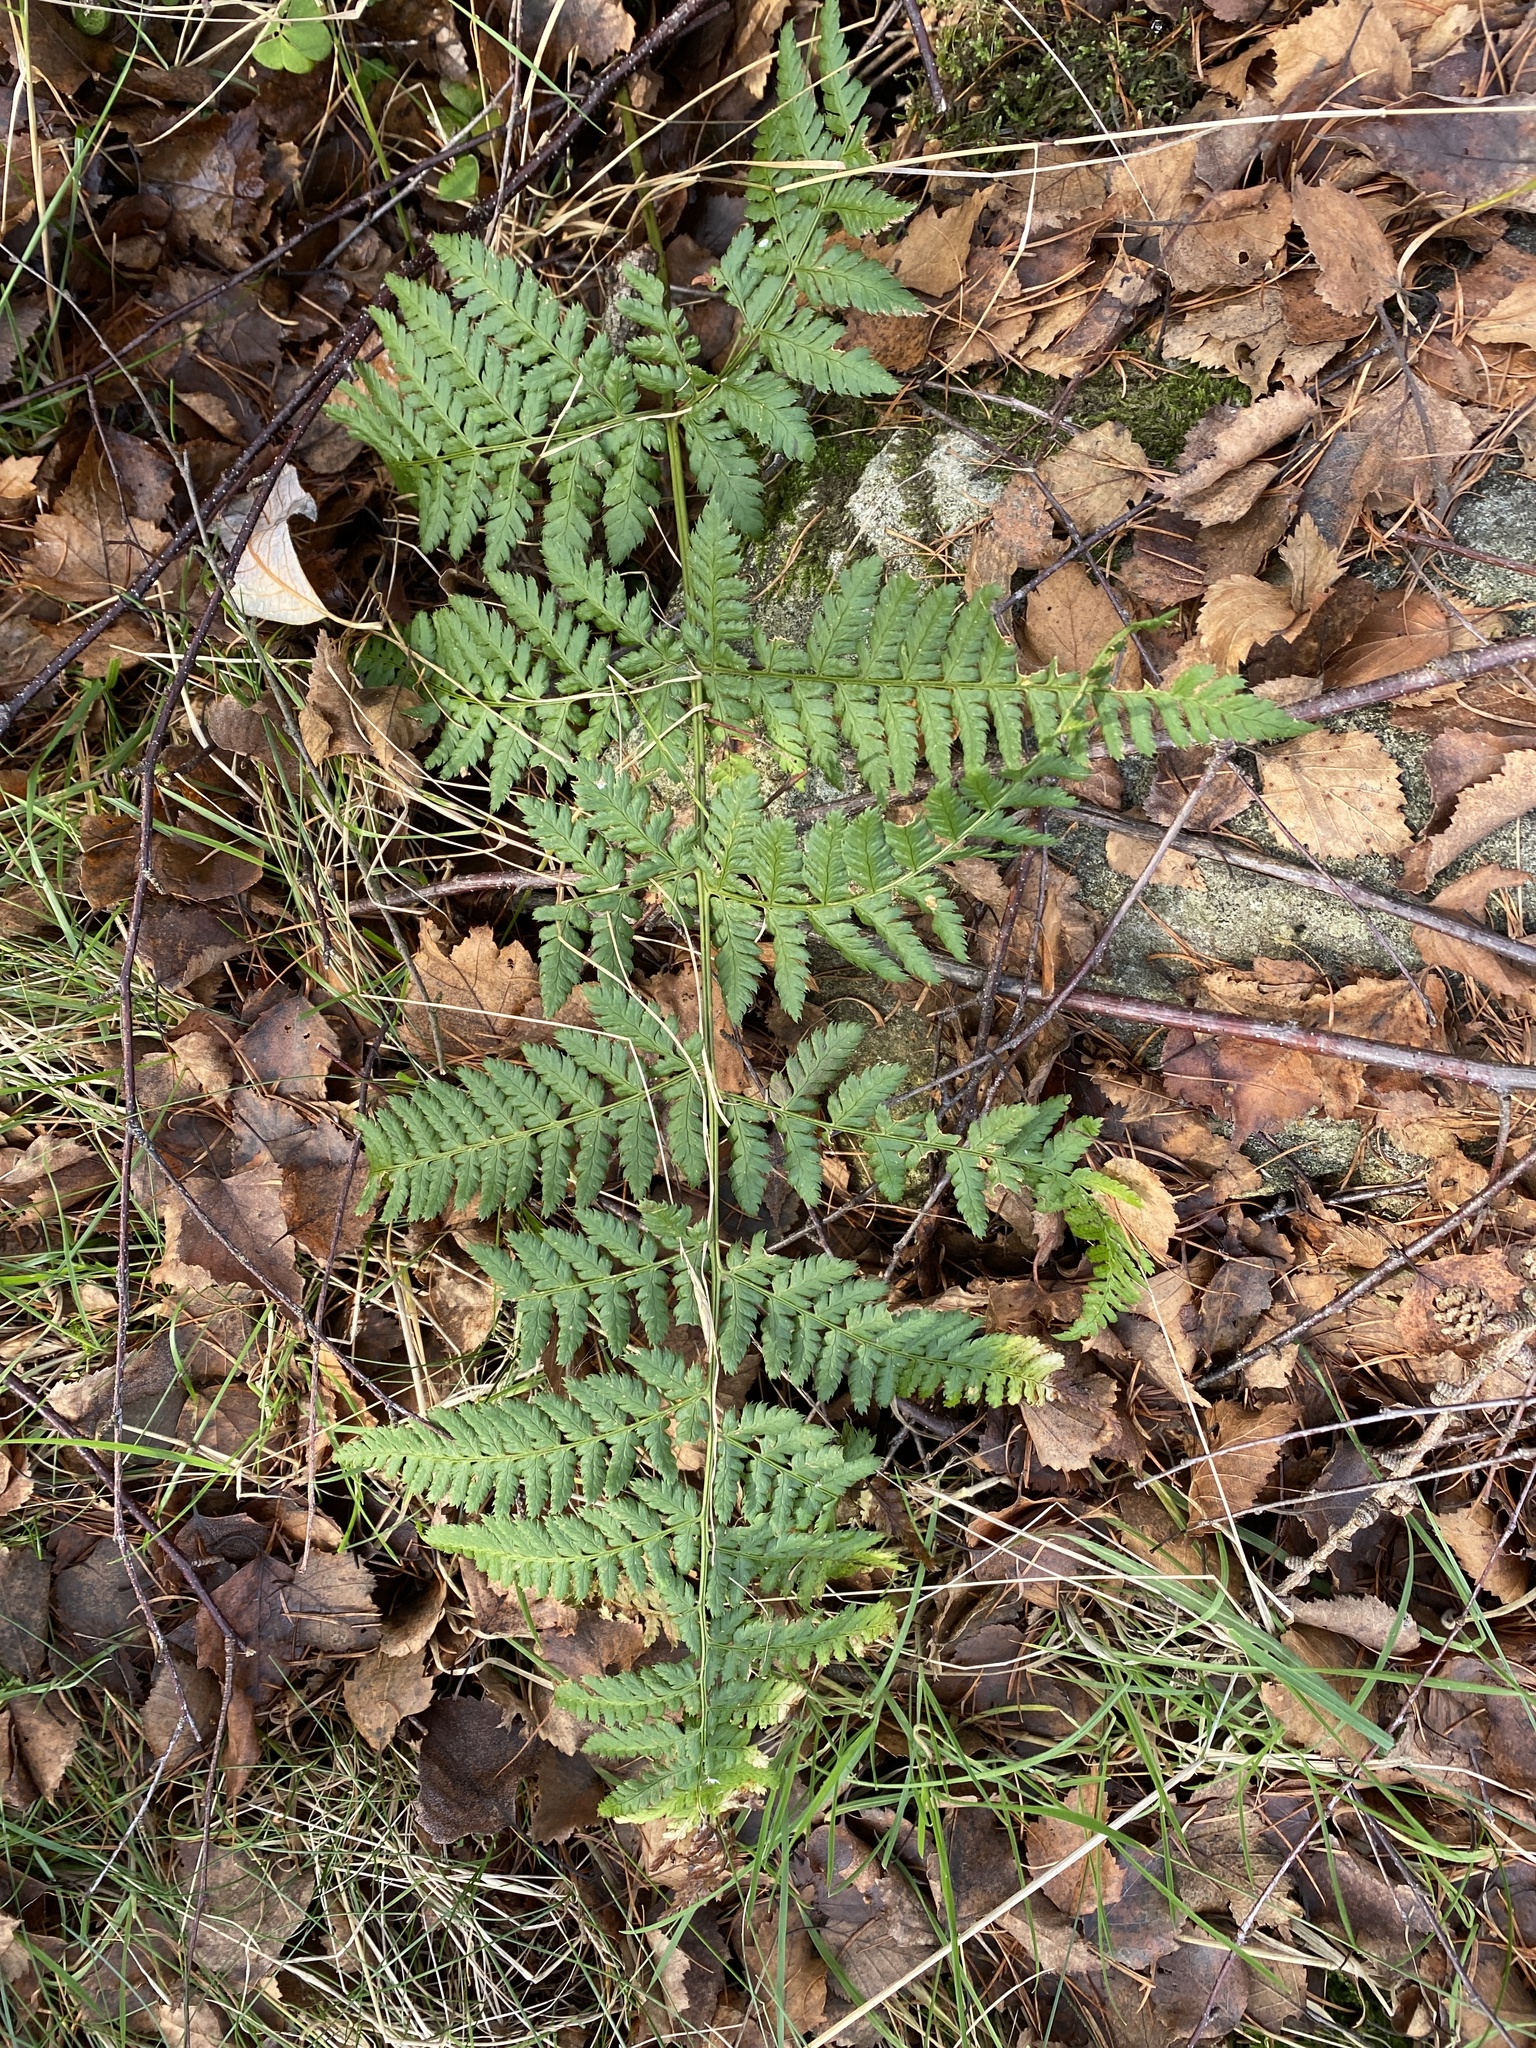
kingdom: Plantae
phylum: Tracheophyta
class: Polypodiopsida
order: Polypodiales
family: Dryopteridaceae
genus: Dryopteris
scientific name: Dryopteris dilatata
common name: Broad buckler-fern
